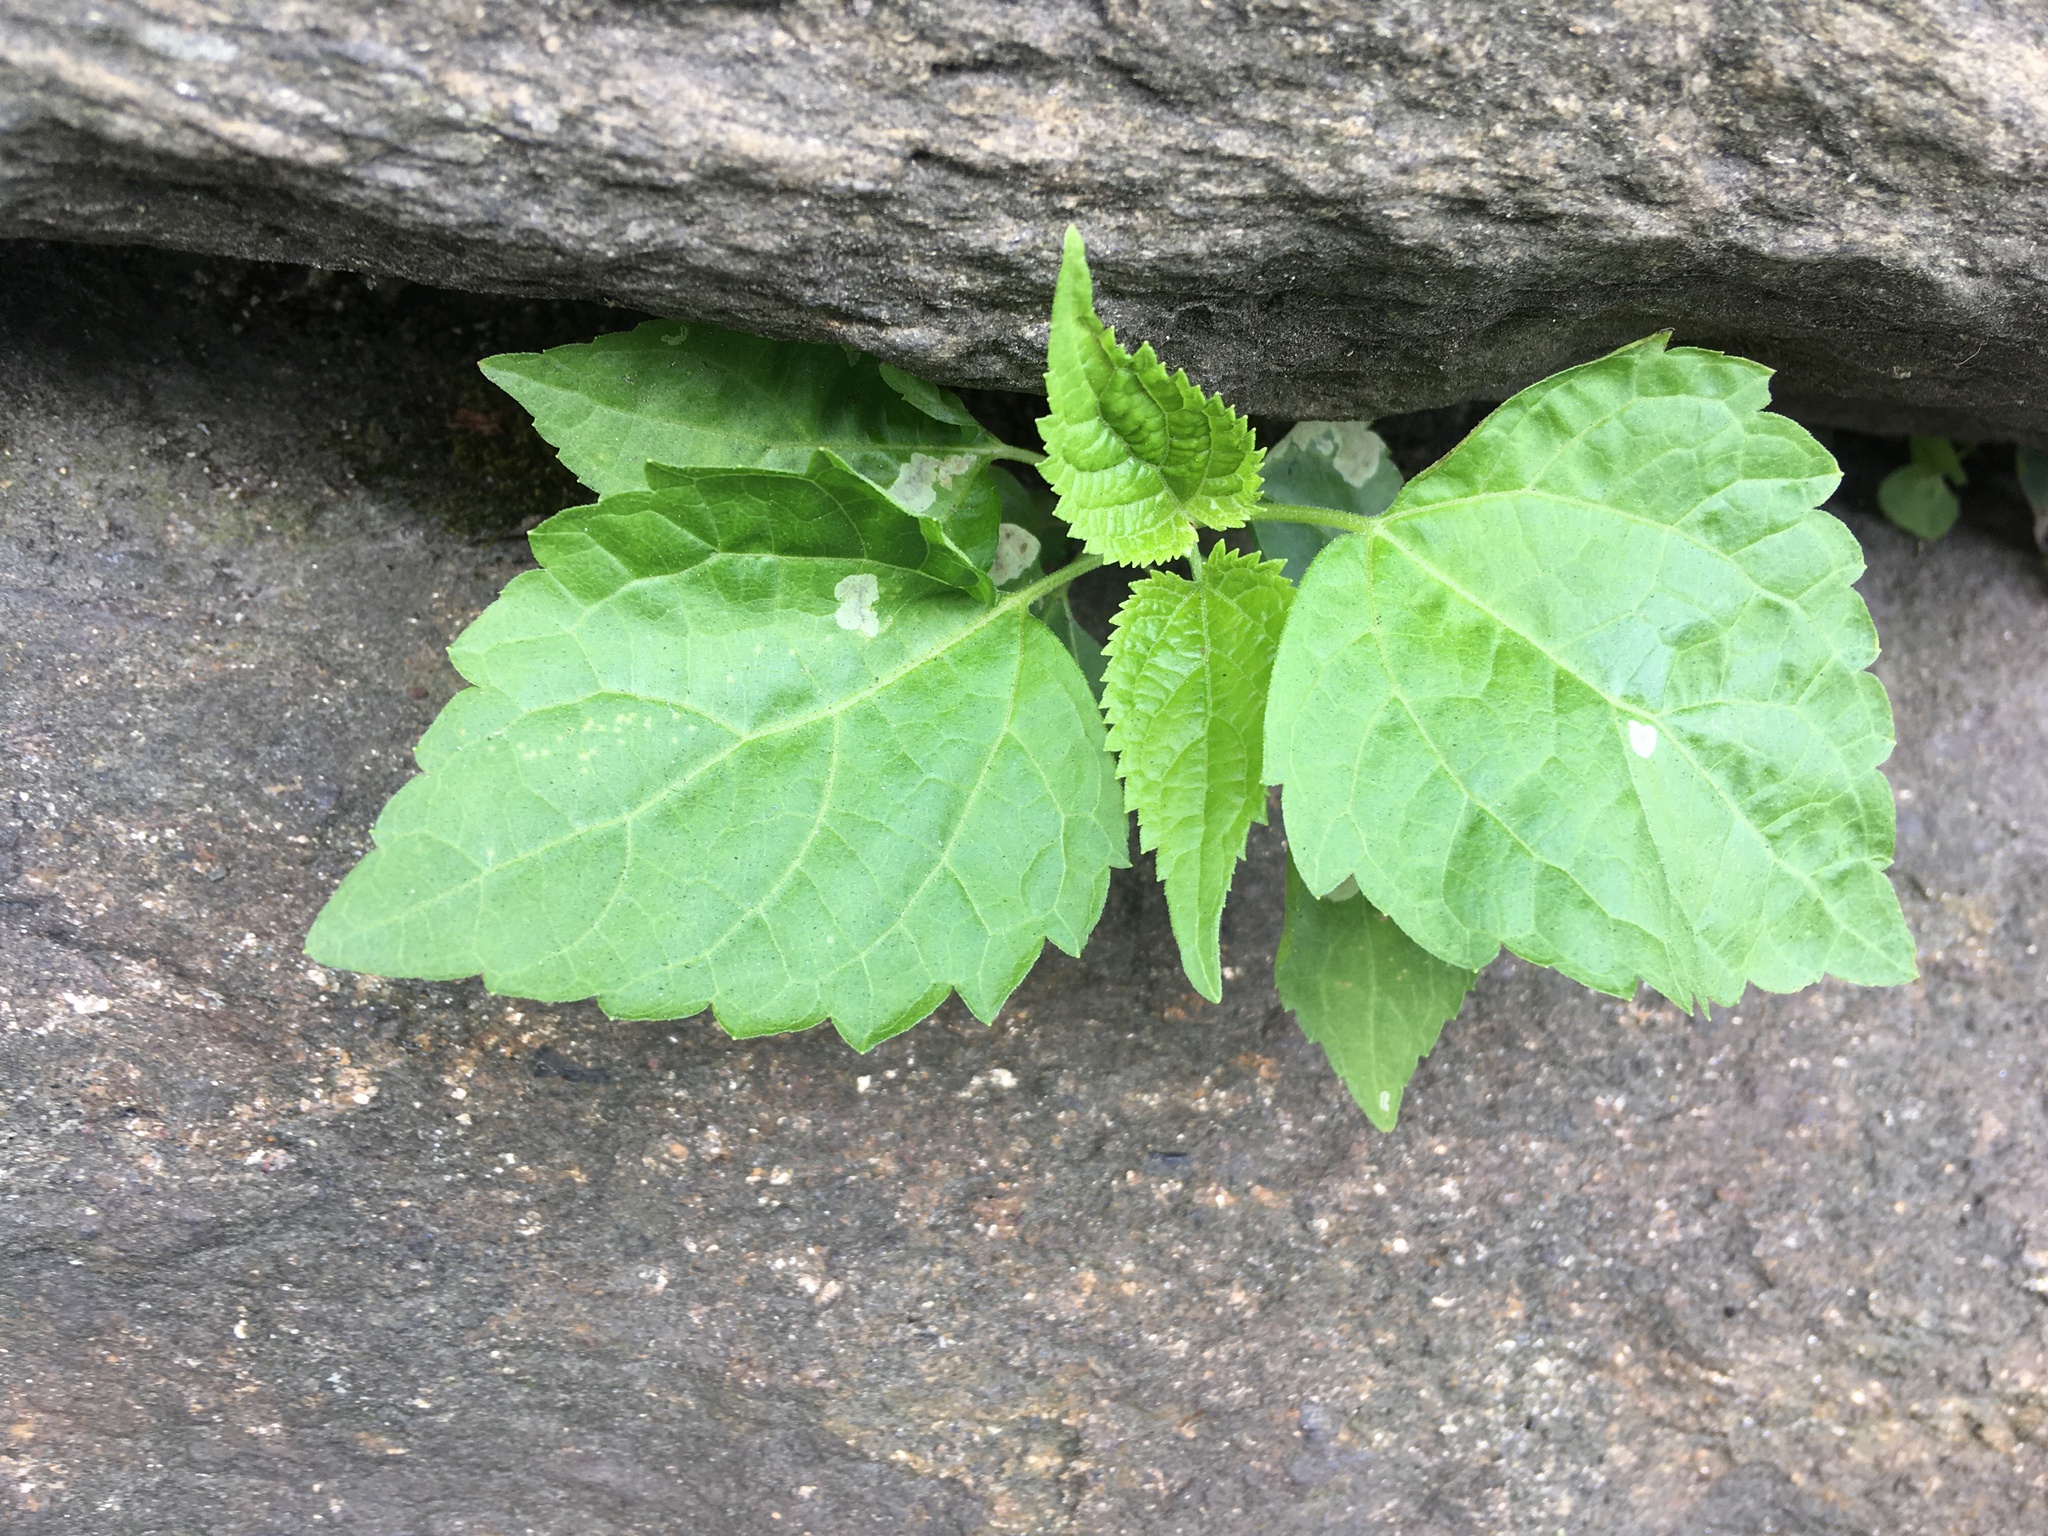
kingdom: Plantae
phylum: Tracheophyta
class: Magnoliopsida
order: Asterales
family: Asteraceae
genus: Ageratina
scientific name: Ageratina altissima
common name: White snakeroot
